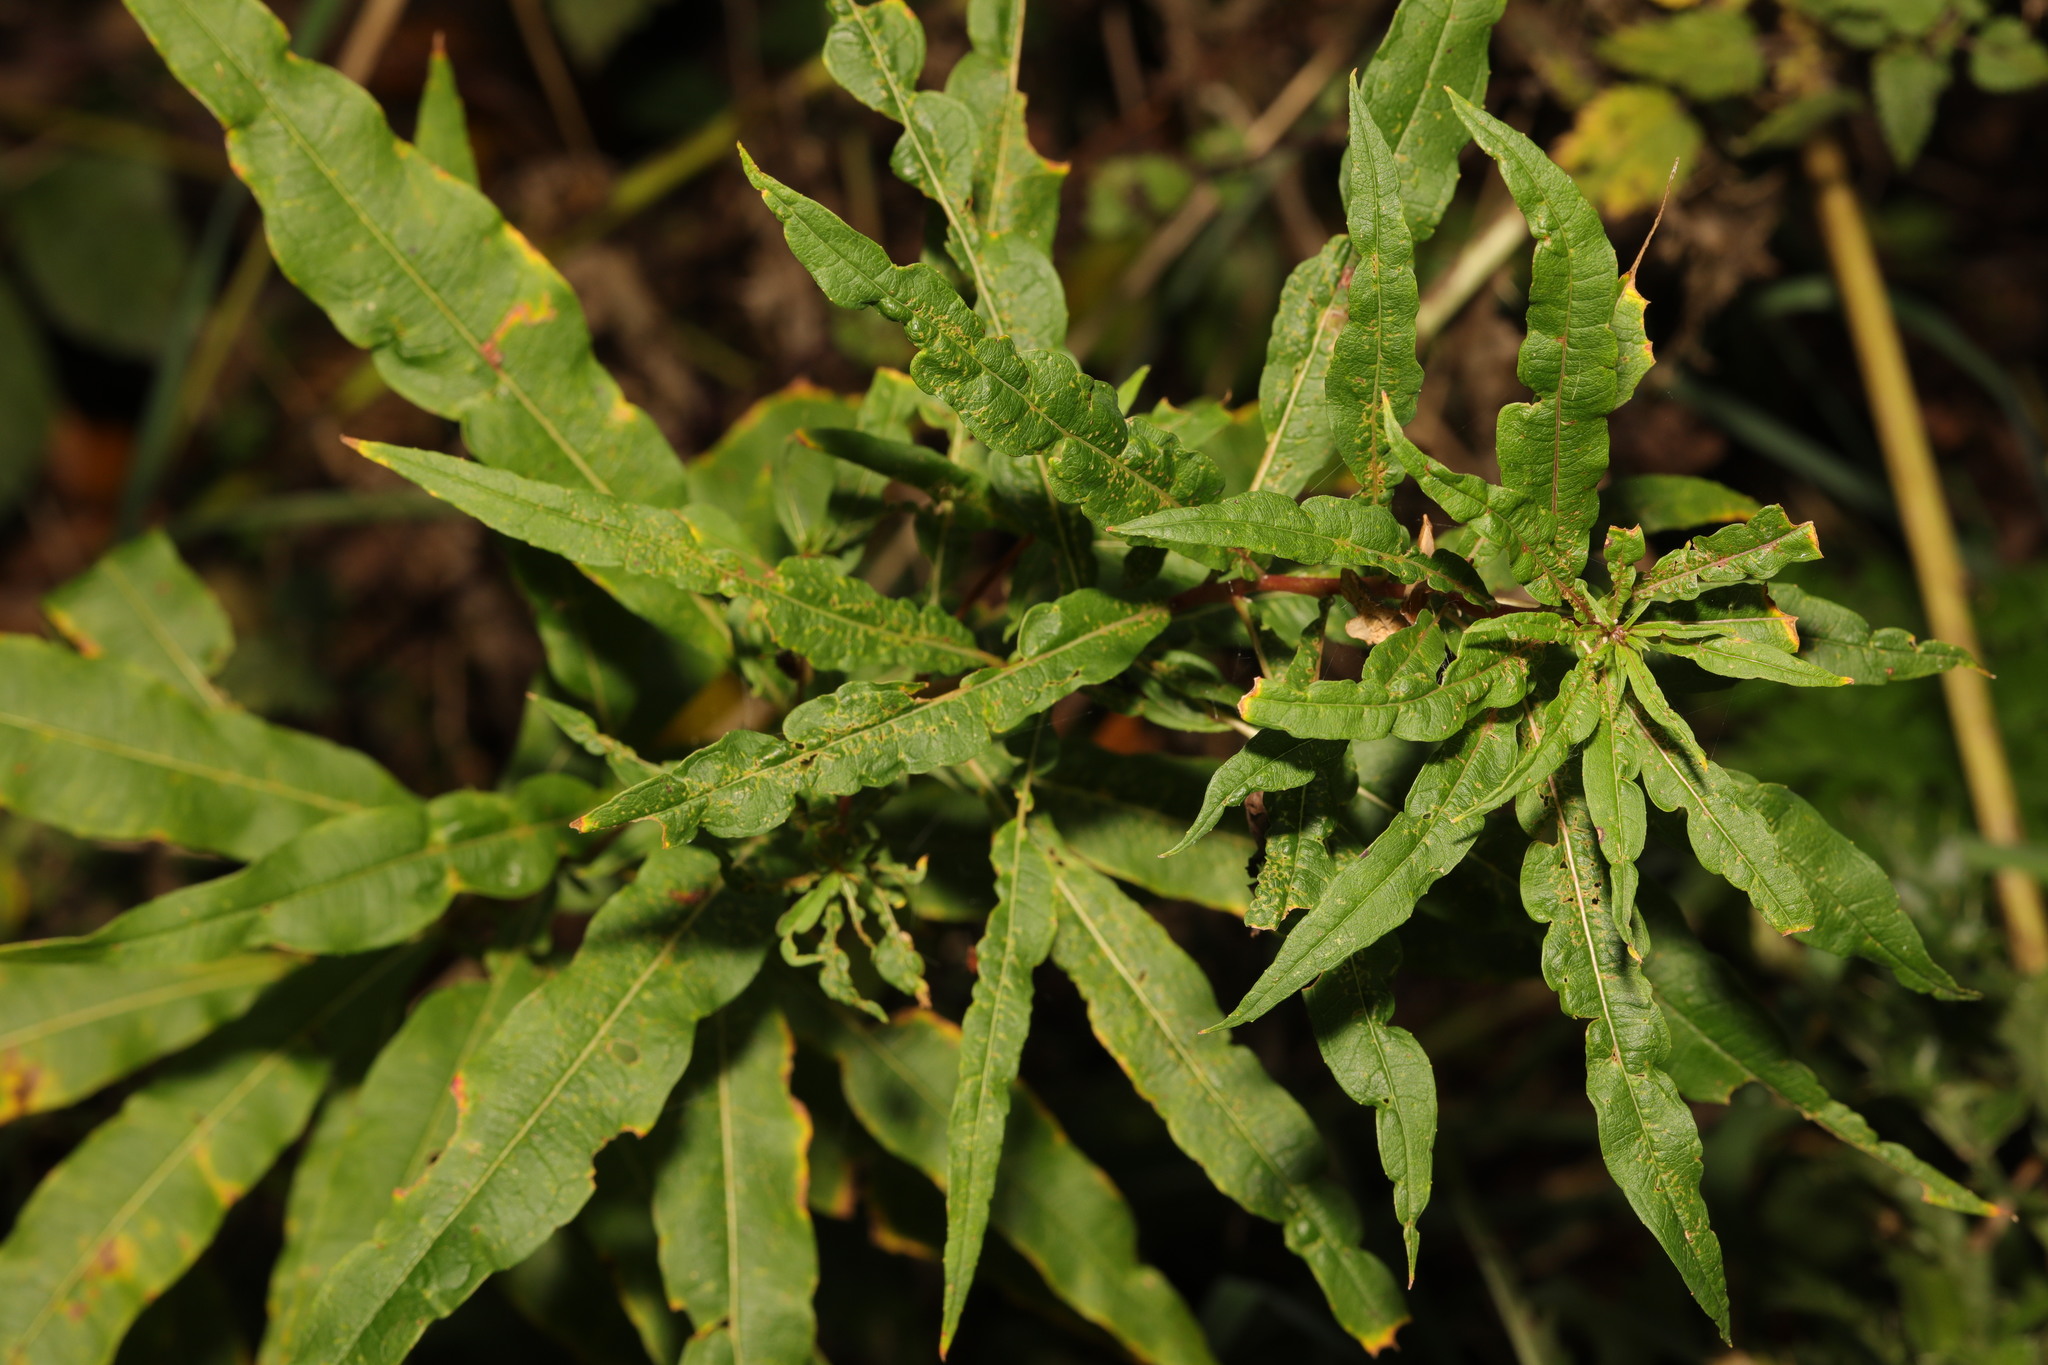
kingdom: Plantae
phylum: Tracheophyta
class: Magnoliopsida
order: Myrtales
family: Onagraceae
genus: Chamaenerion
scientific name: Chamaenerion angustifolium
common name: Fireweed
